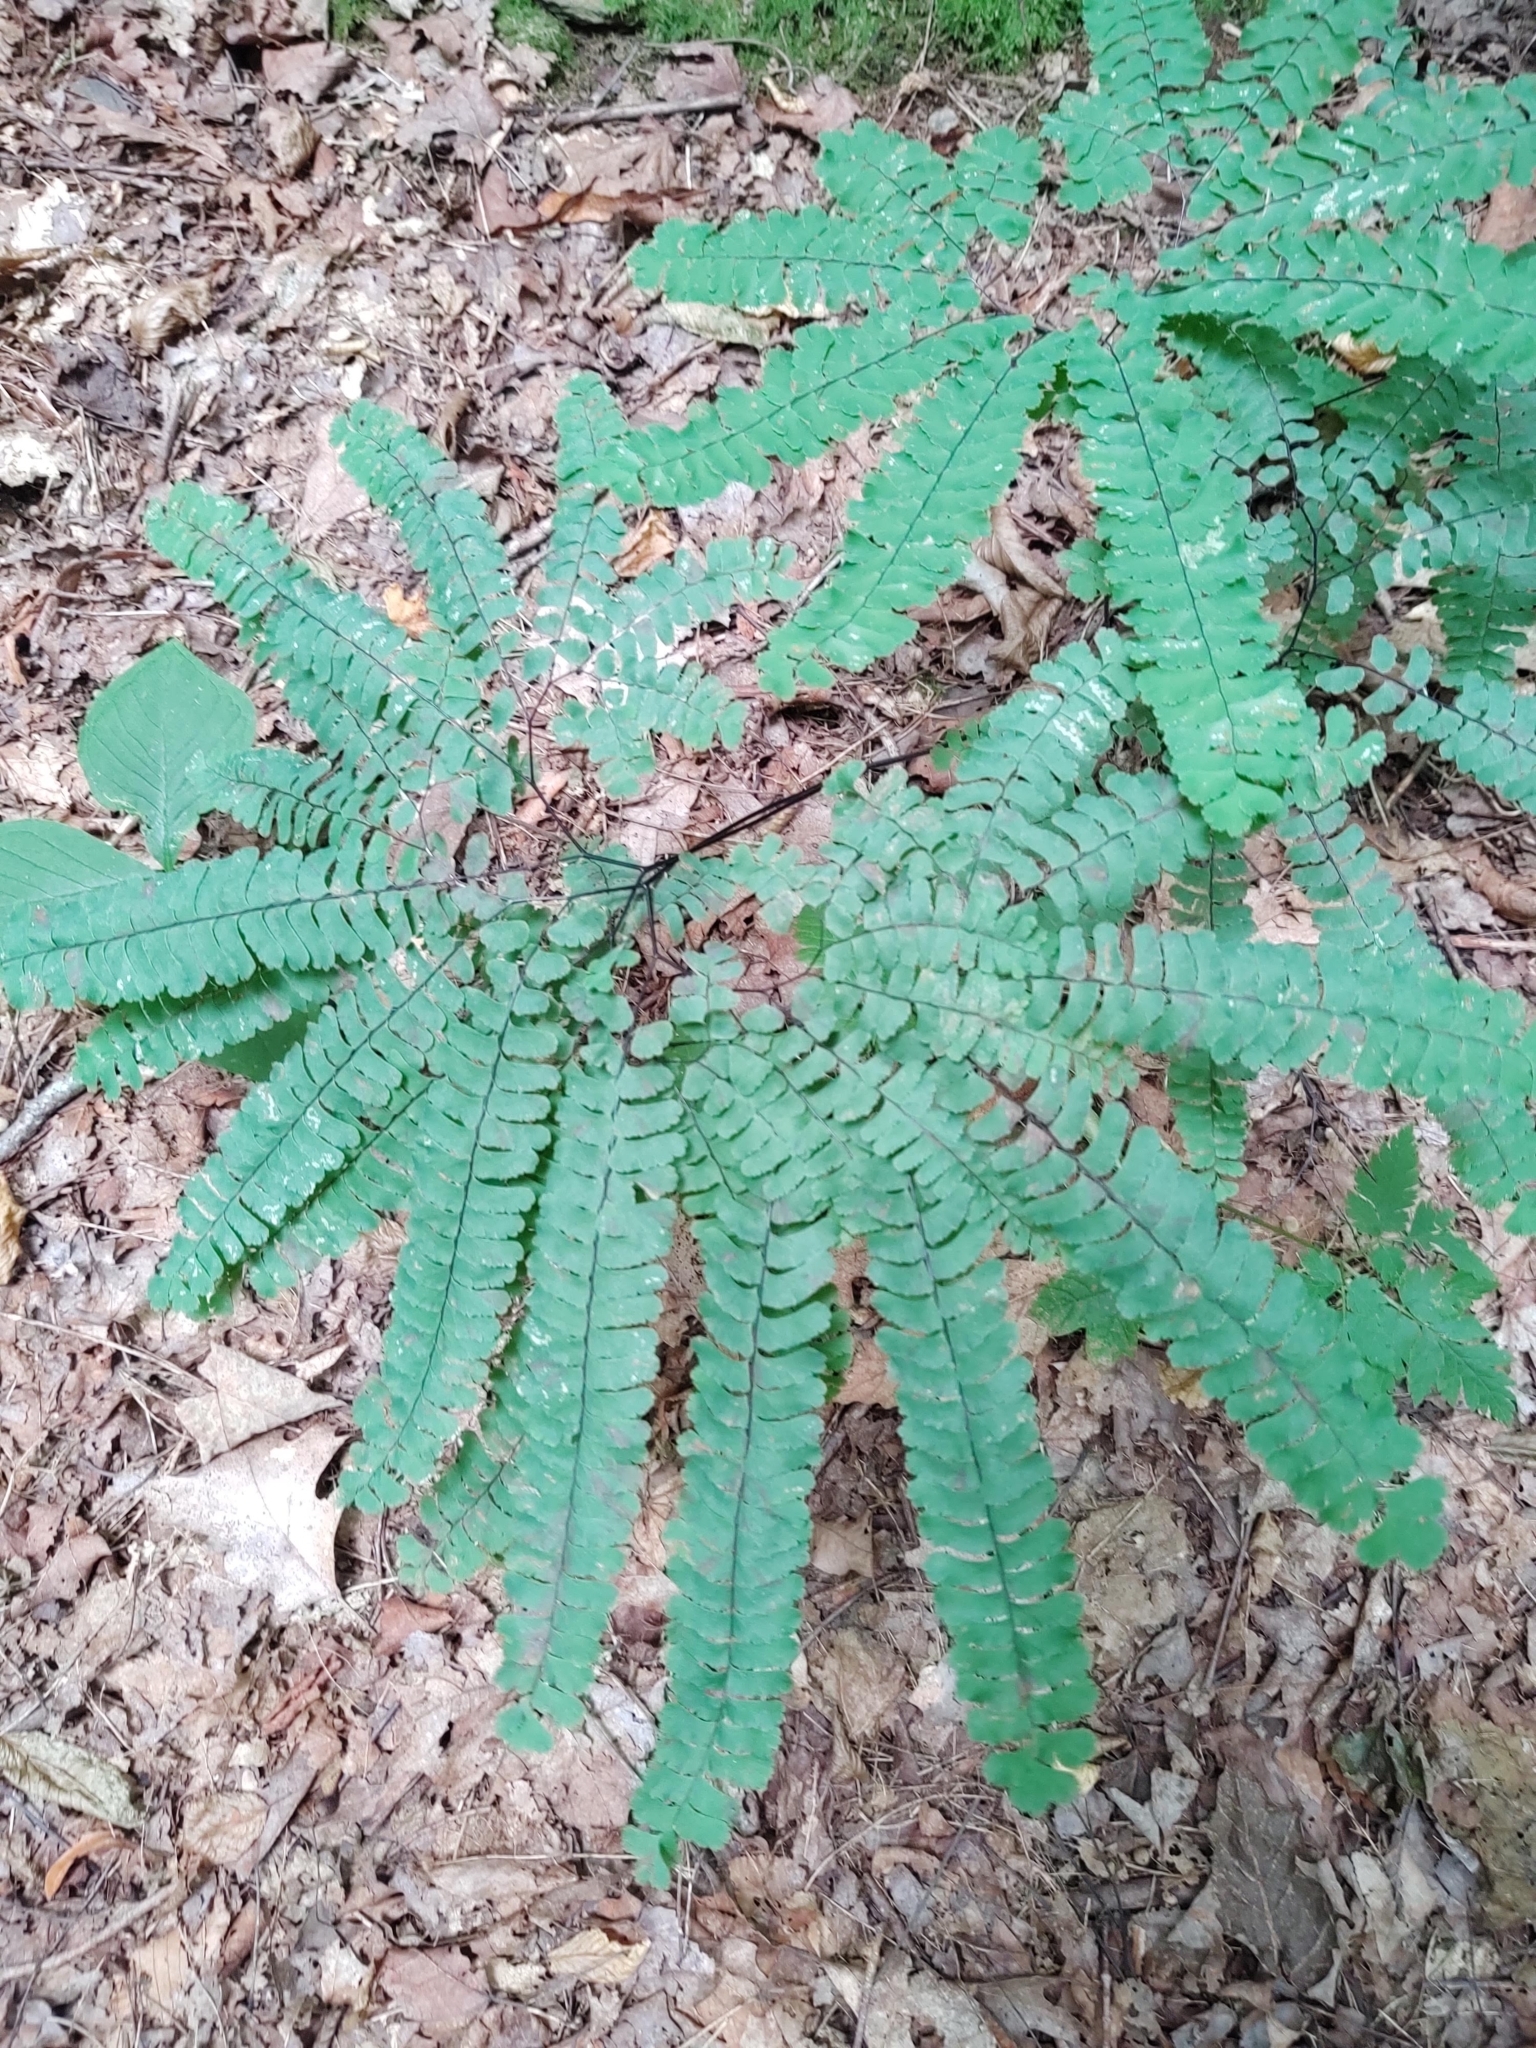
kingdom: Plantae
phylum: Tracheophyta
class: Polypodiopsida
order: Polypodiales
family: Pteridaceae
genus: Adiantum
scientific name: Adiantum pedatum
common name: Five-finger fern
